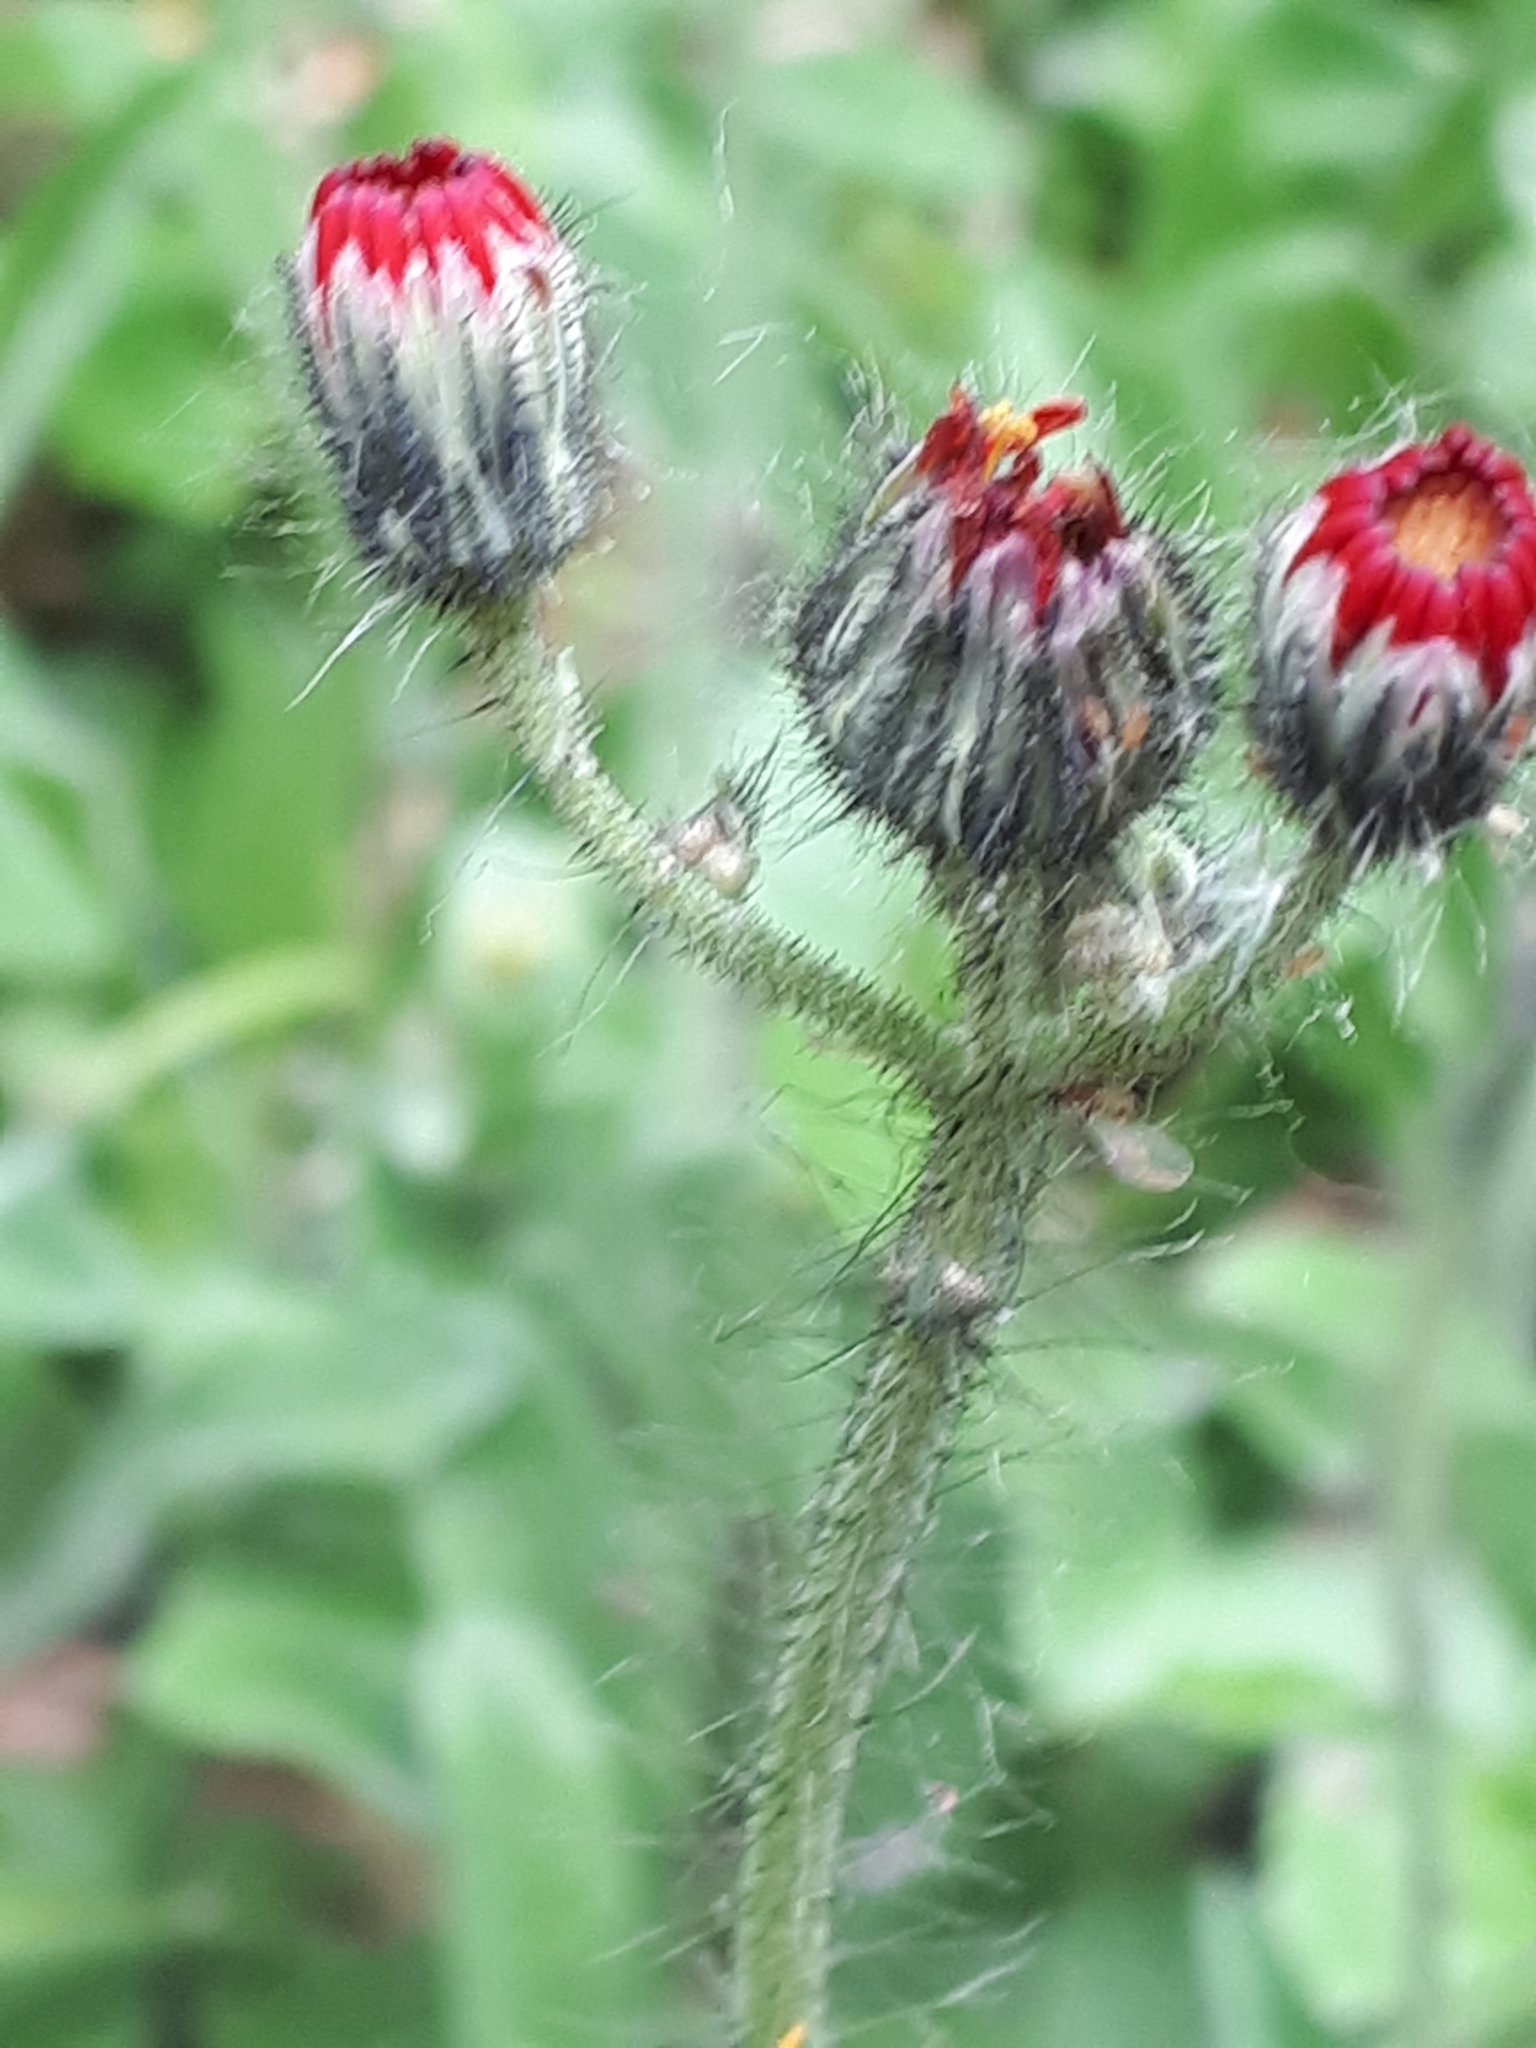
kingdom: Plantae
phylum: Tracheophyta
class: Magnoliopsida
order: Asterales
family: Asteraceae
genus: Pilosella
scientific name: Pilosella aurantiaca
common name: Fox-and-cubs
